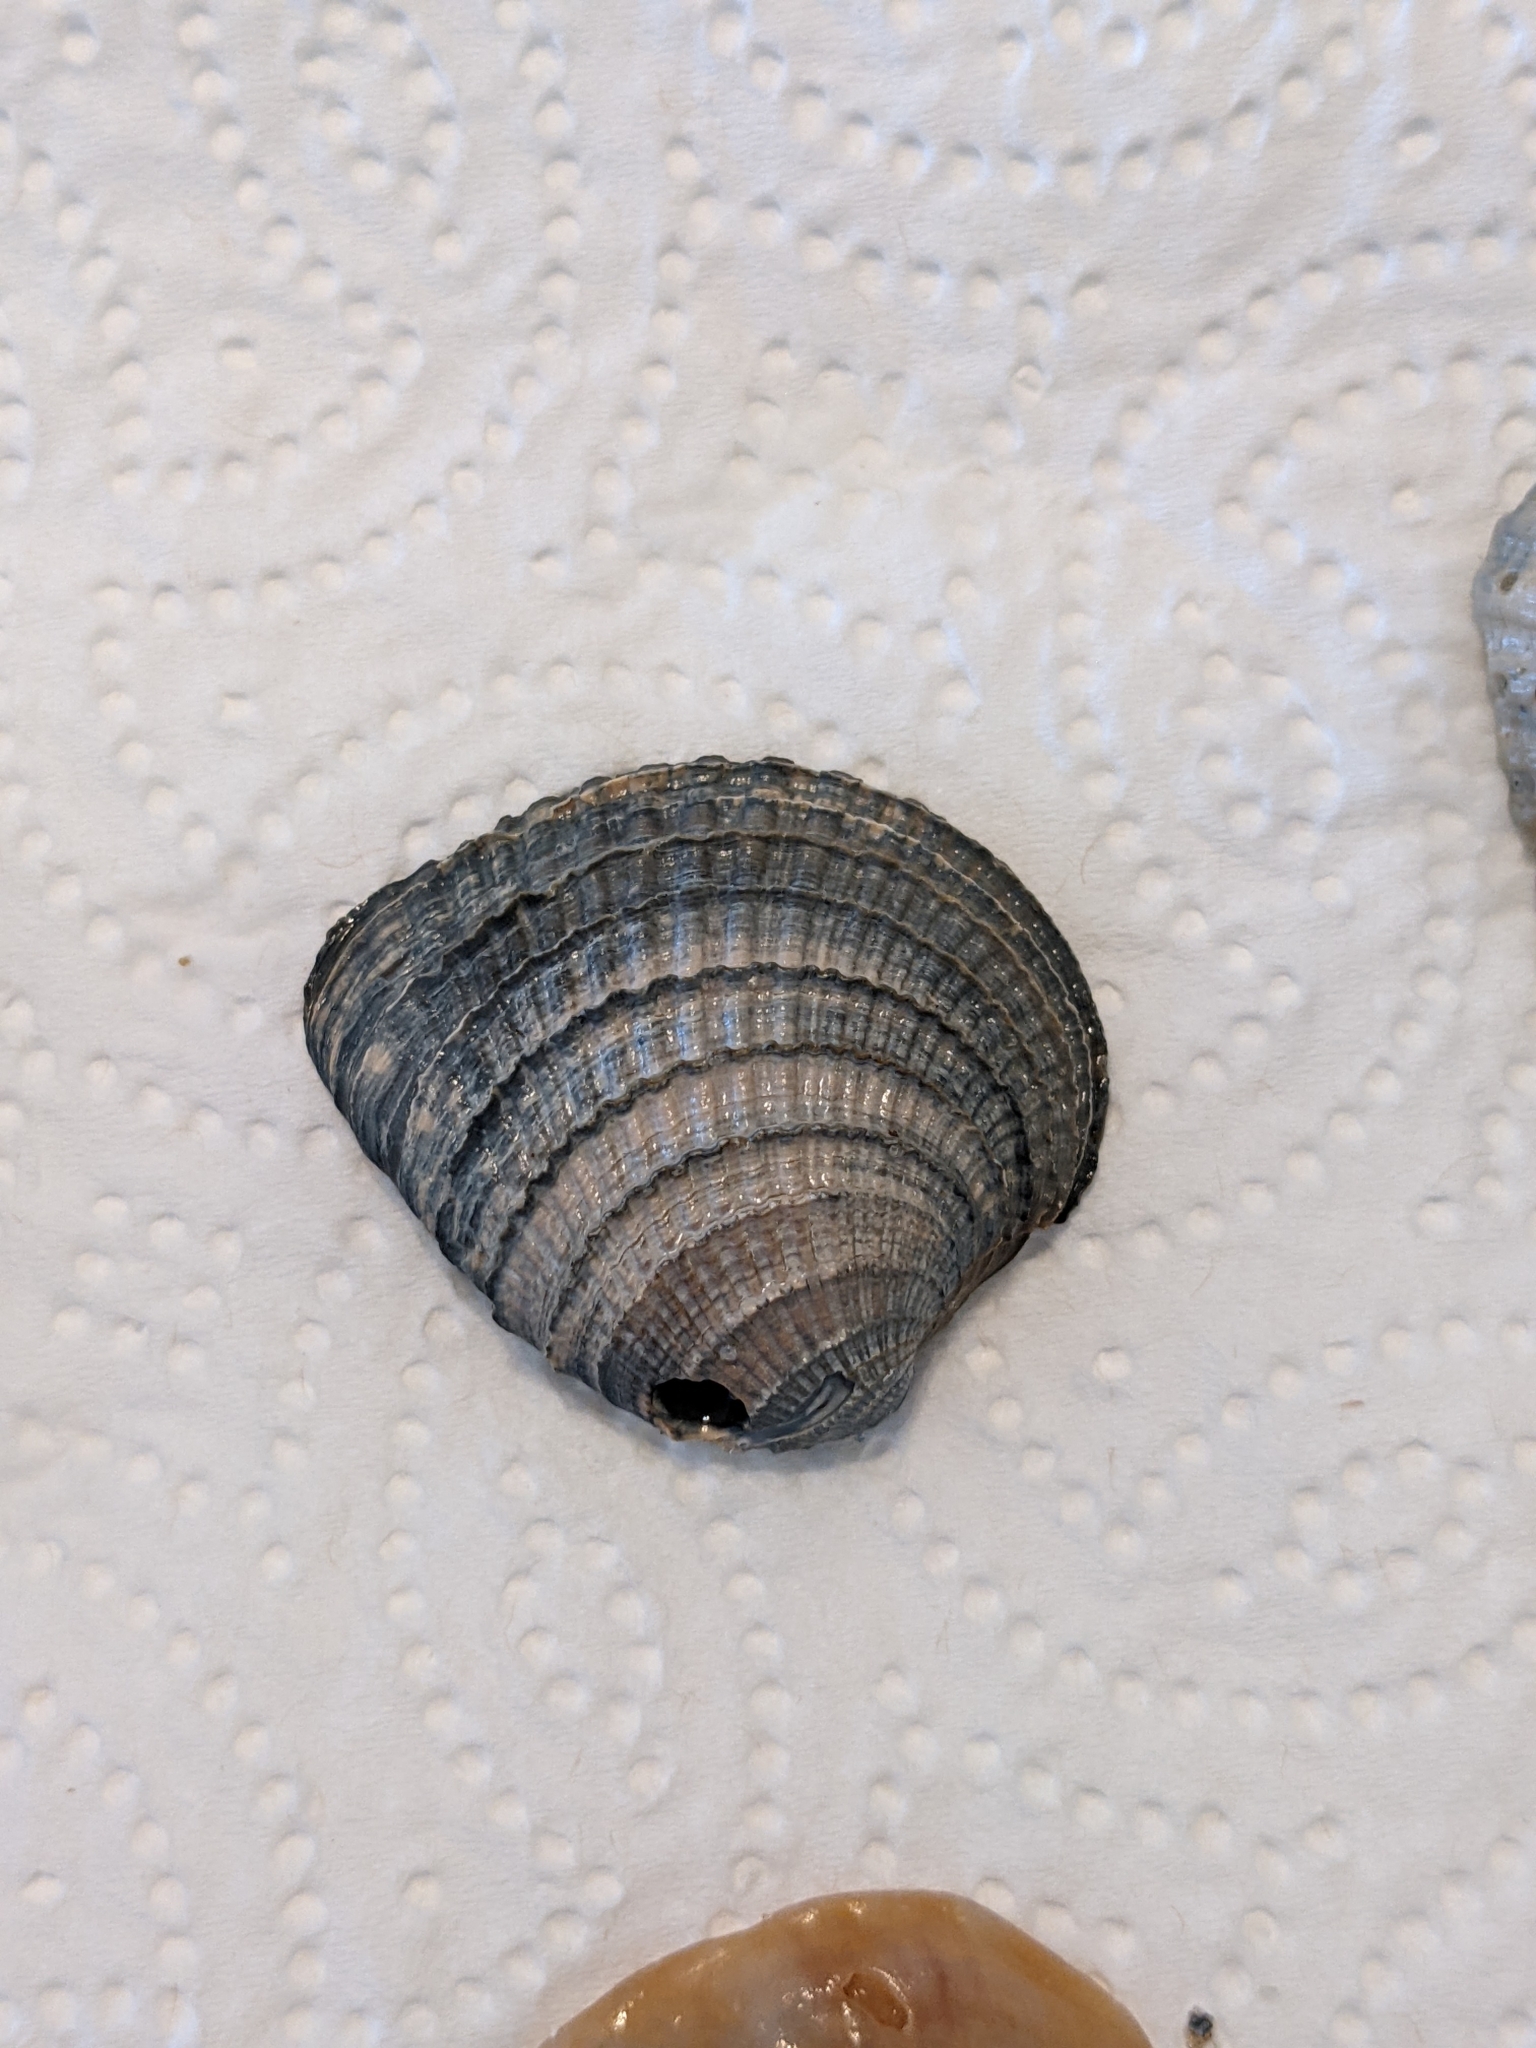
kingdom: Animalia
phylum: Mollusca
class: Bivalvia
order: Venerida
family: Veneridae
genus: Chione
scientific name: Chione elevata
